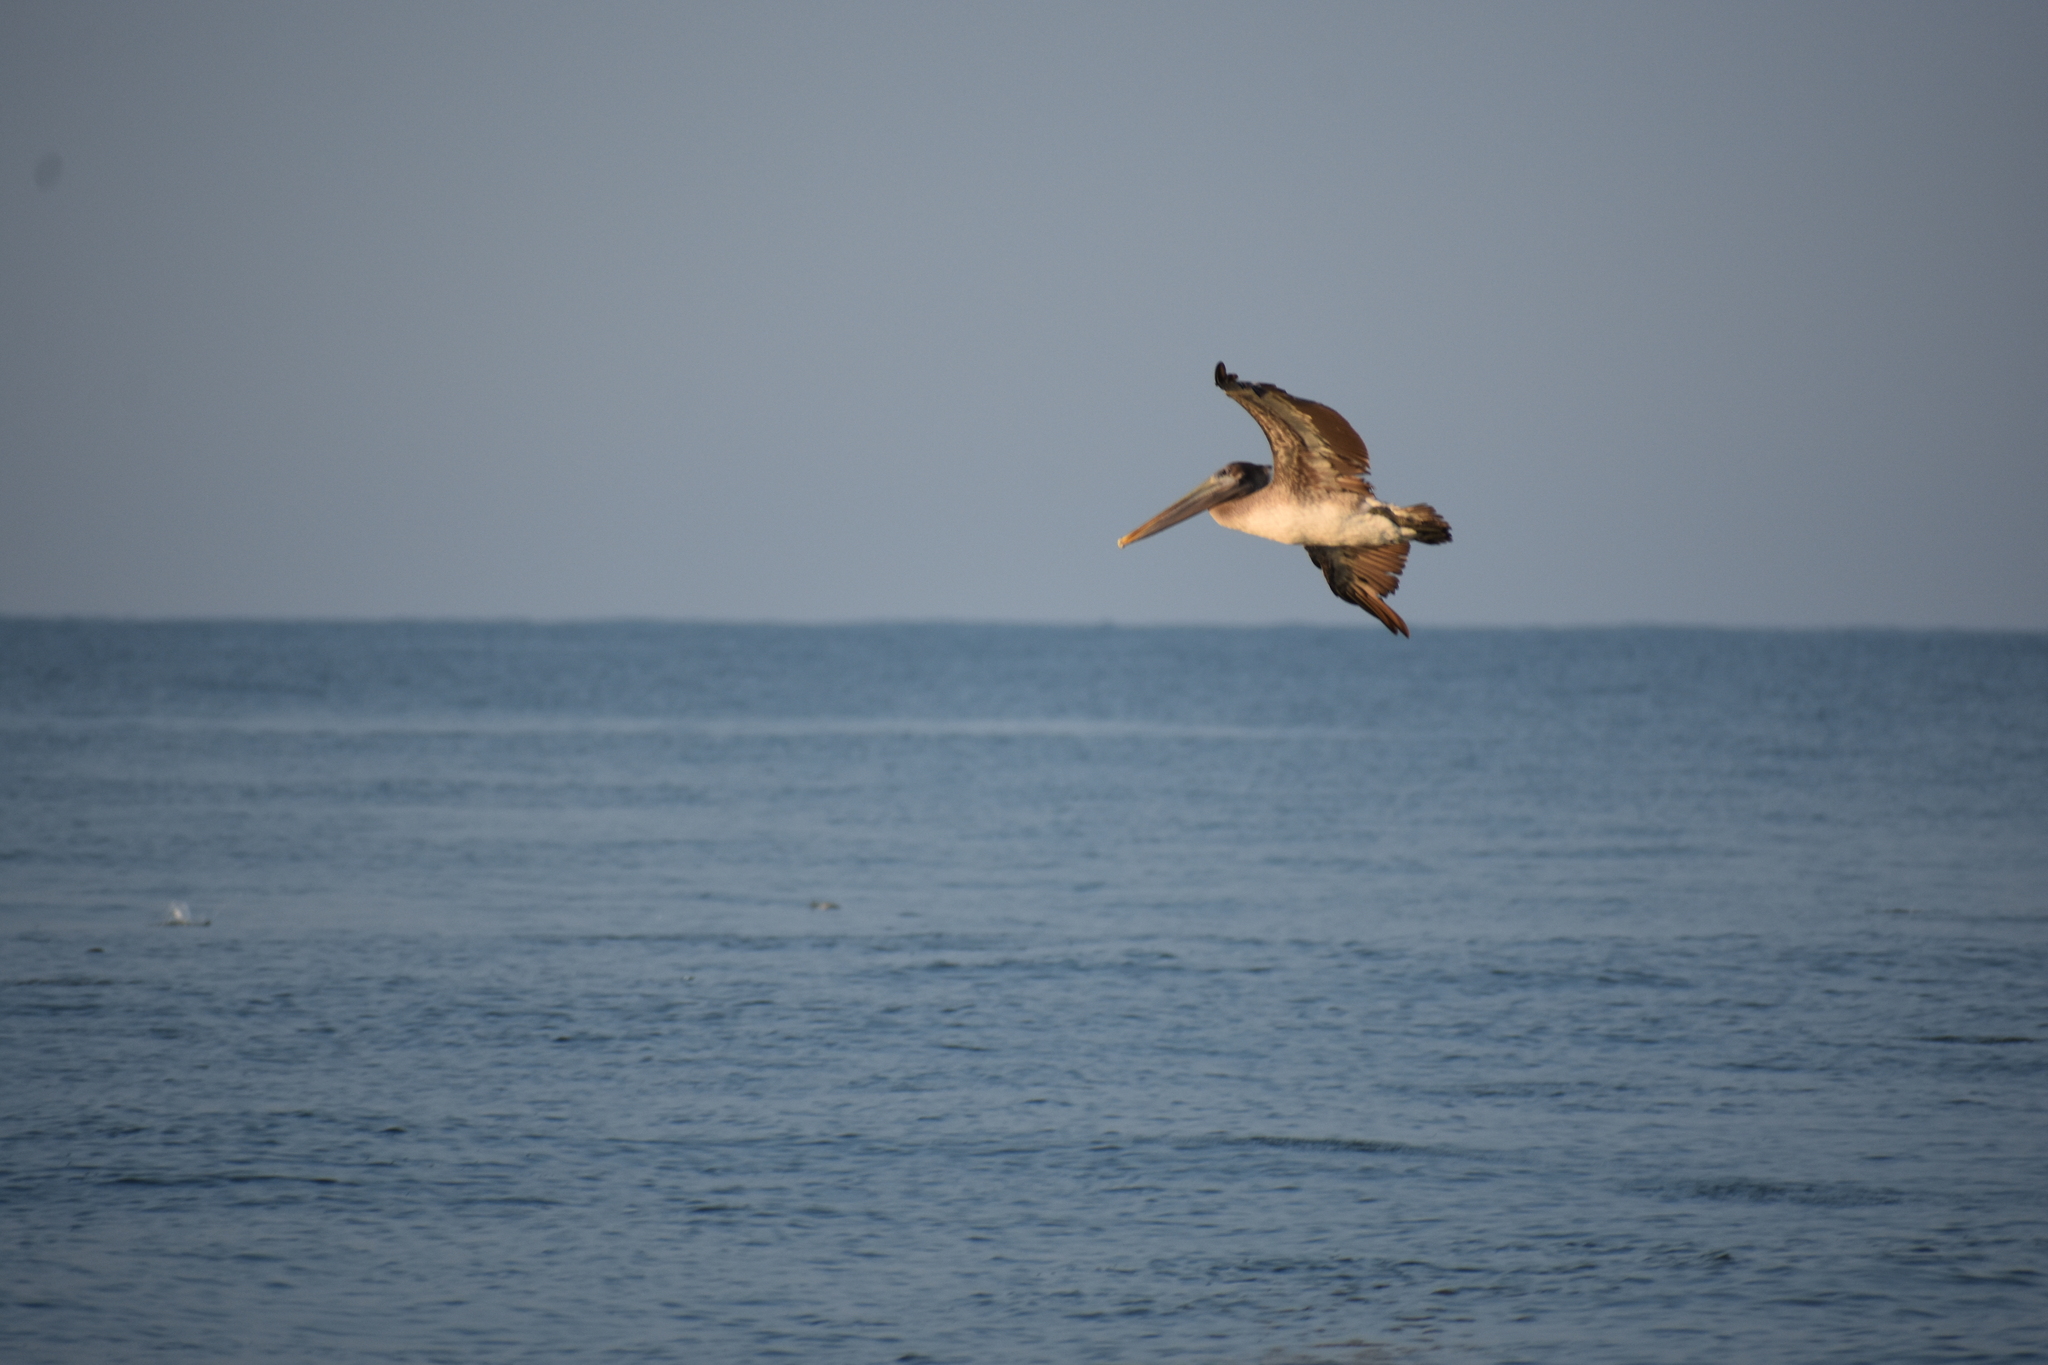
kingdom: Animalia
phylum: Chordata
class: Aves
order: Pelecaniformes
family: Pelecanidae
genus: Pelecanus
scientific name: Pelecanus occidentalis
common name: Brown pelican
